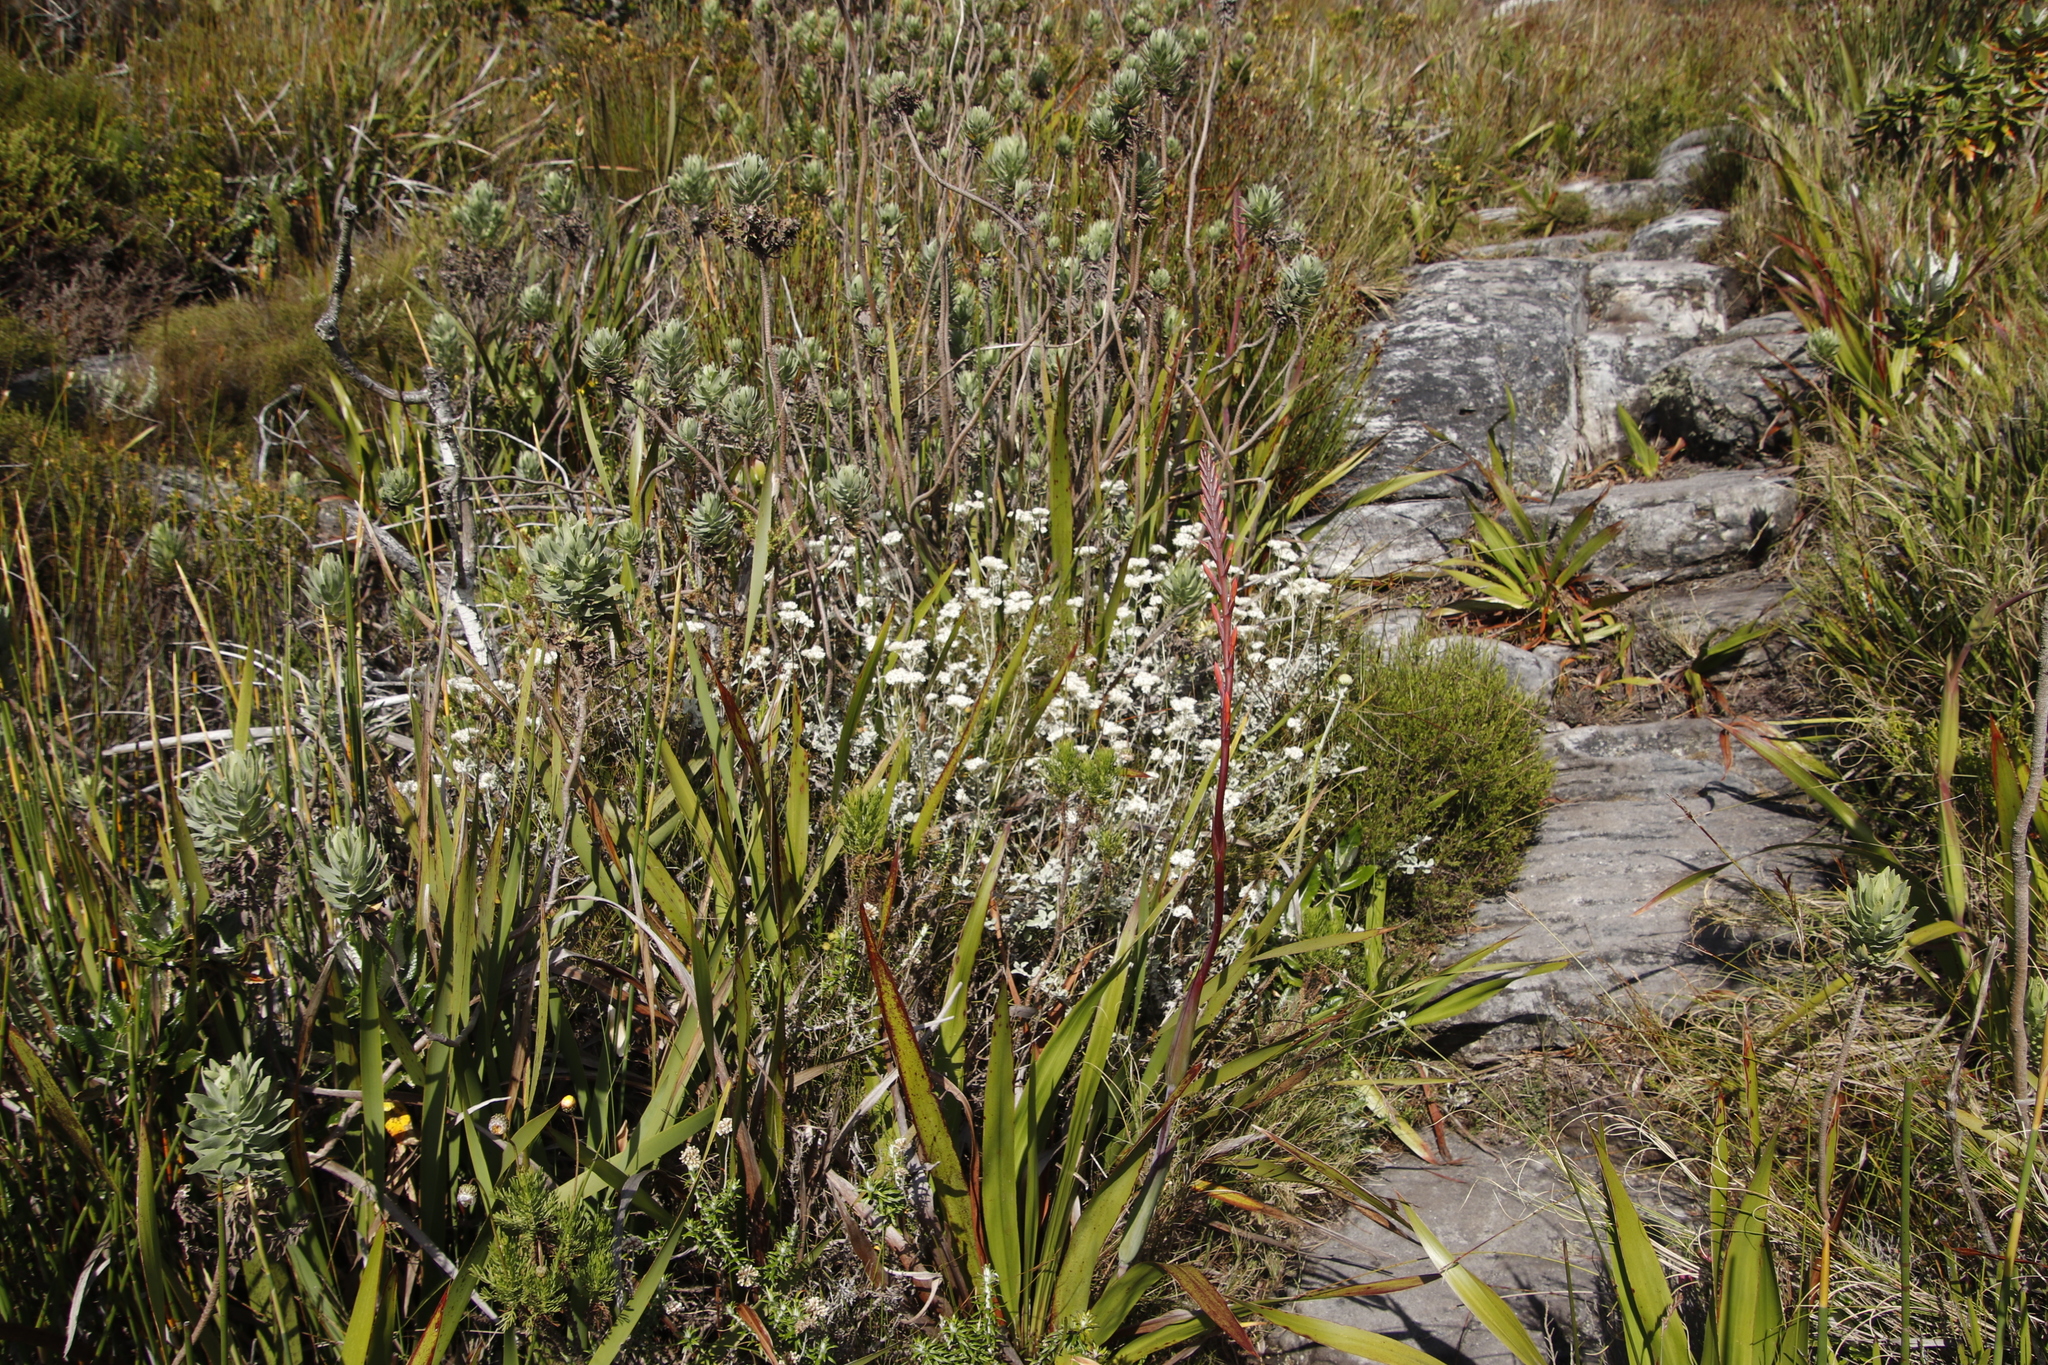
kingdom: Plantae
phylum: Tracheophyta
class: Magnoliopsida
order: Asterales
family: Asteraceae
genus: Osmitopsis
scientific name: Osmitopsis asteriscoides
